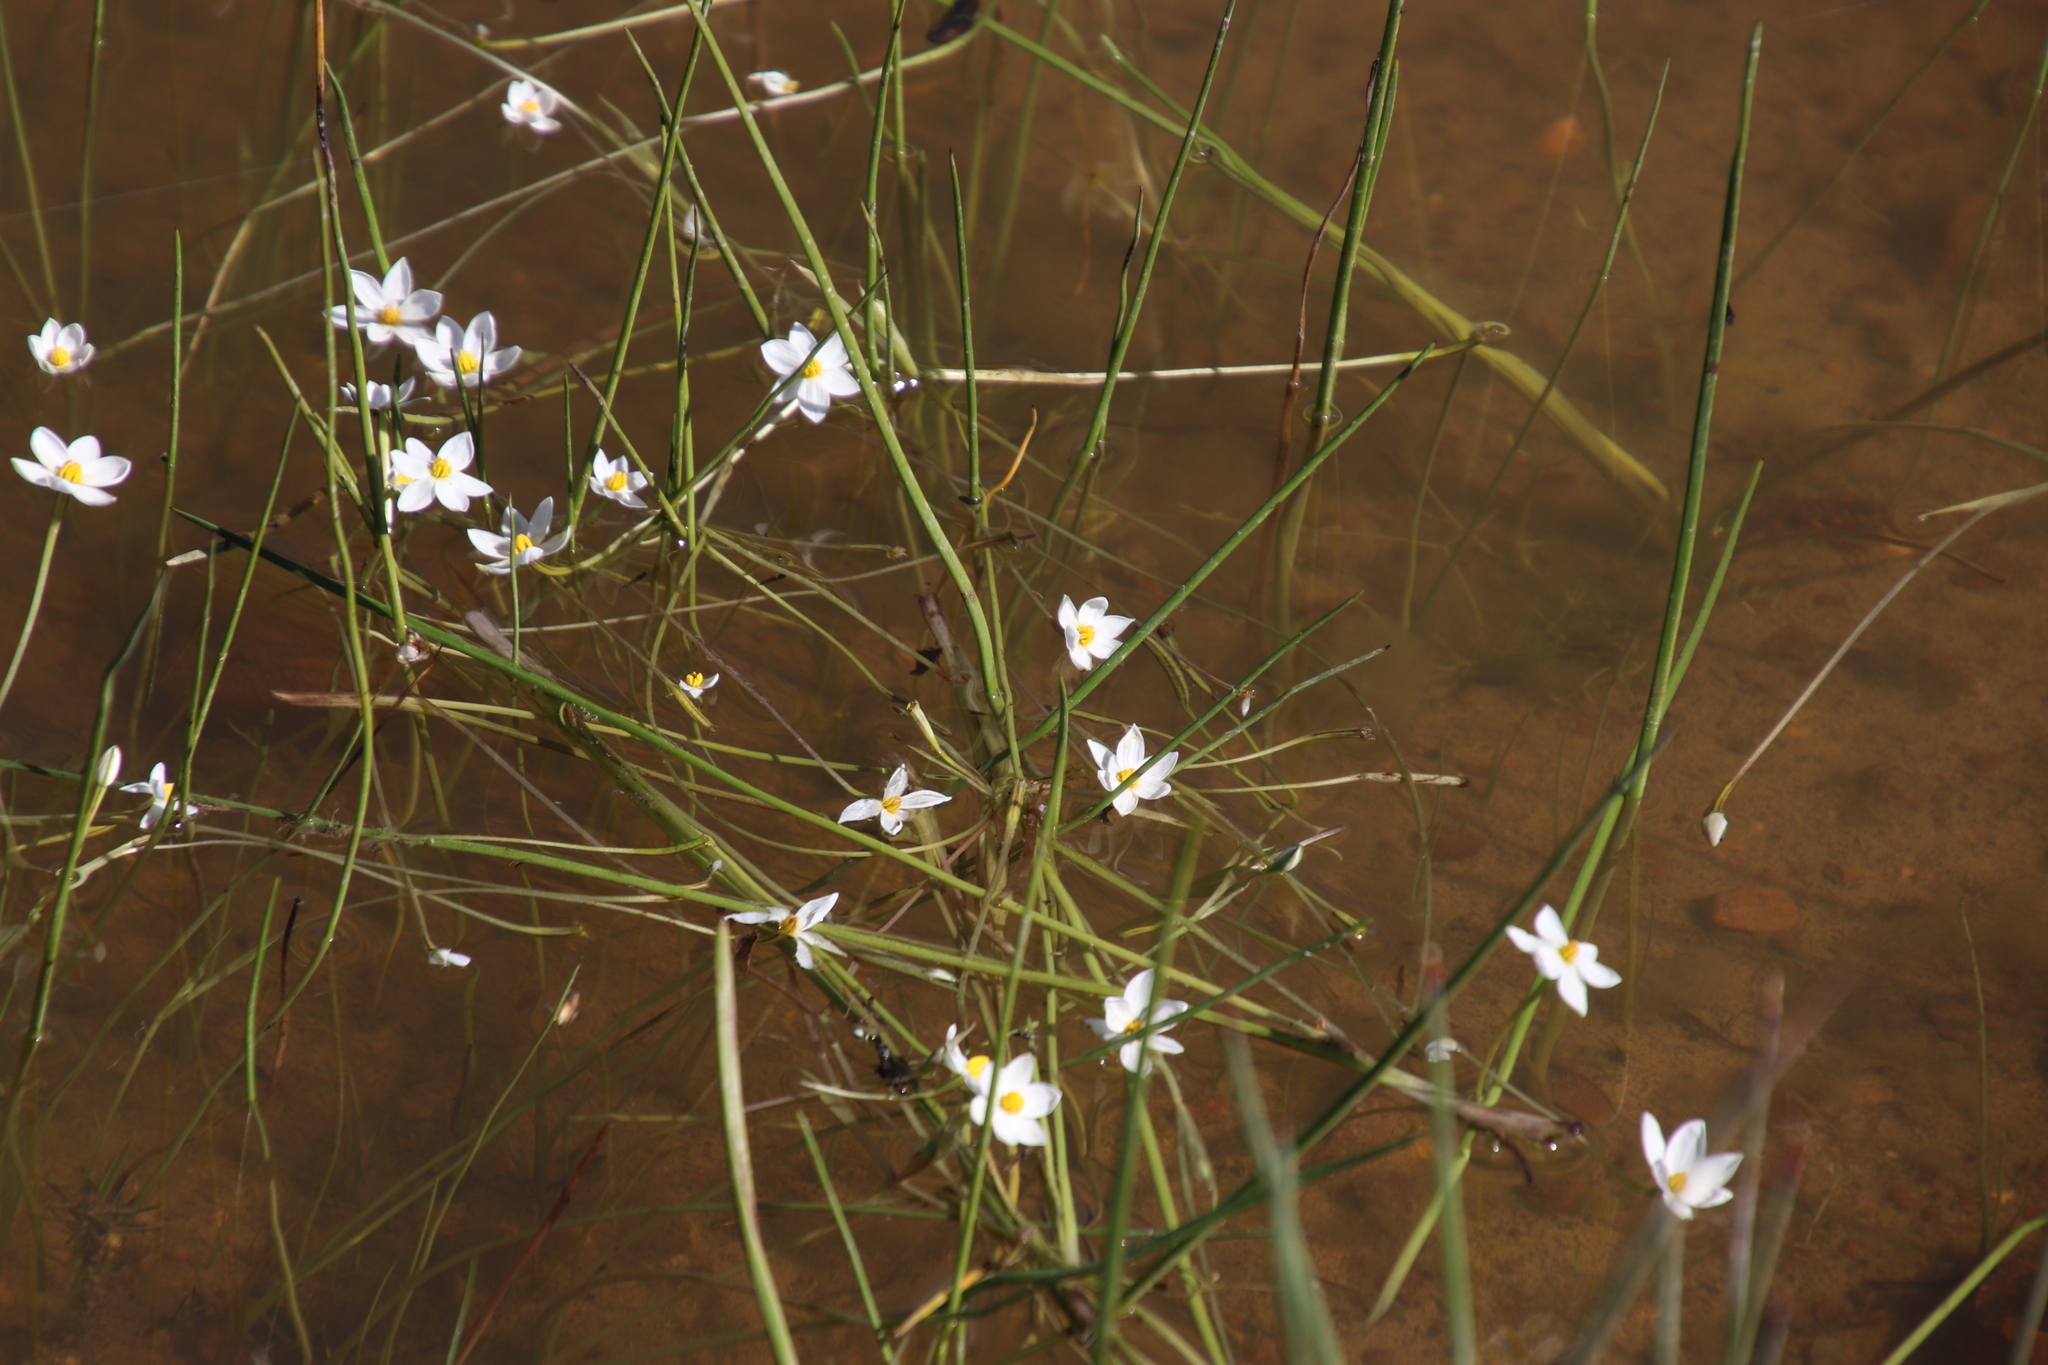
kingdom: Plantae
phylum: Tracheophyta
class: Liliopsida
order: Asparagales
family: Hypoxidaceae
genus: Pauridia
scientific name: Pauridia aquatica
